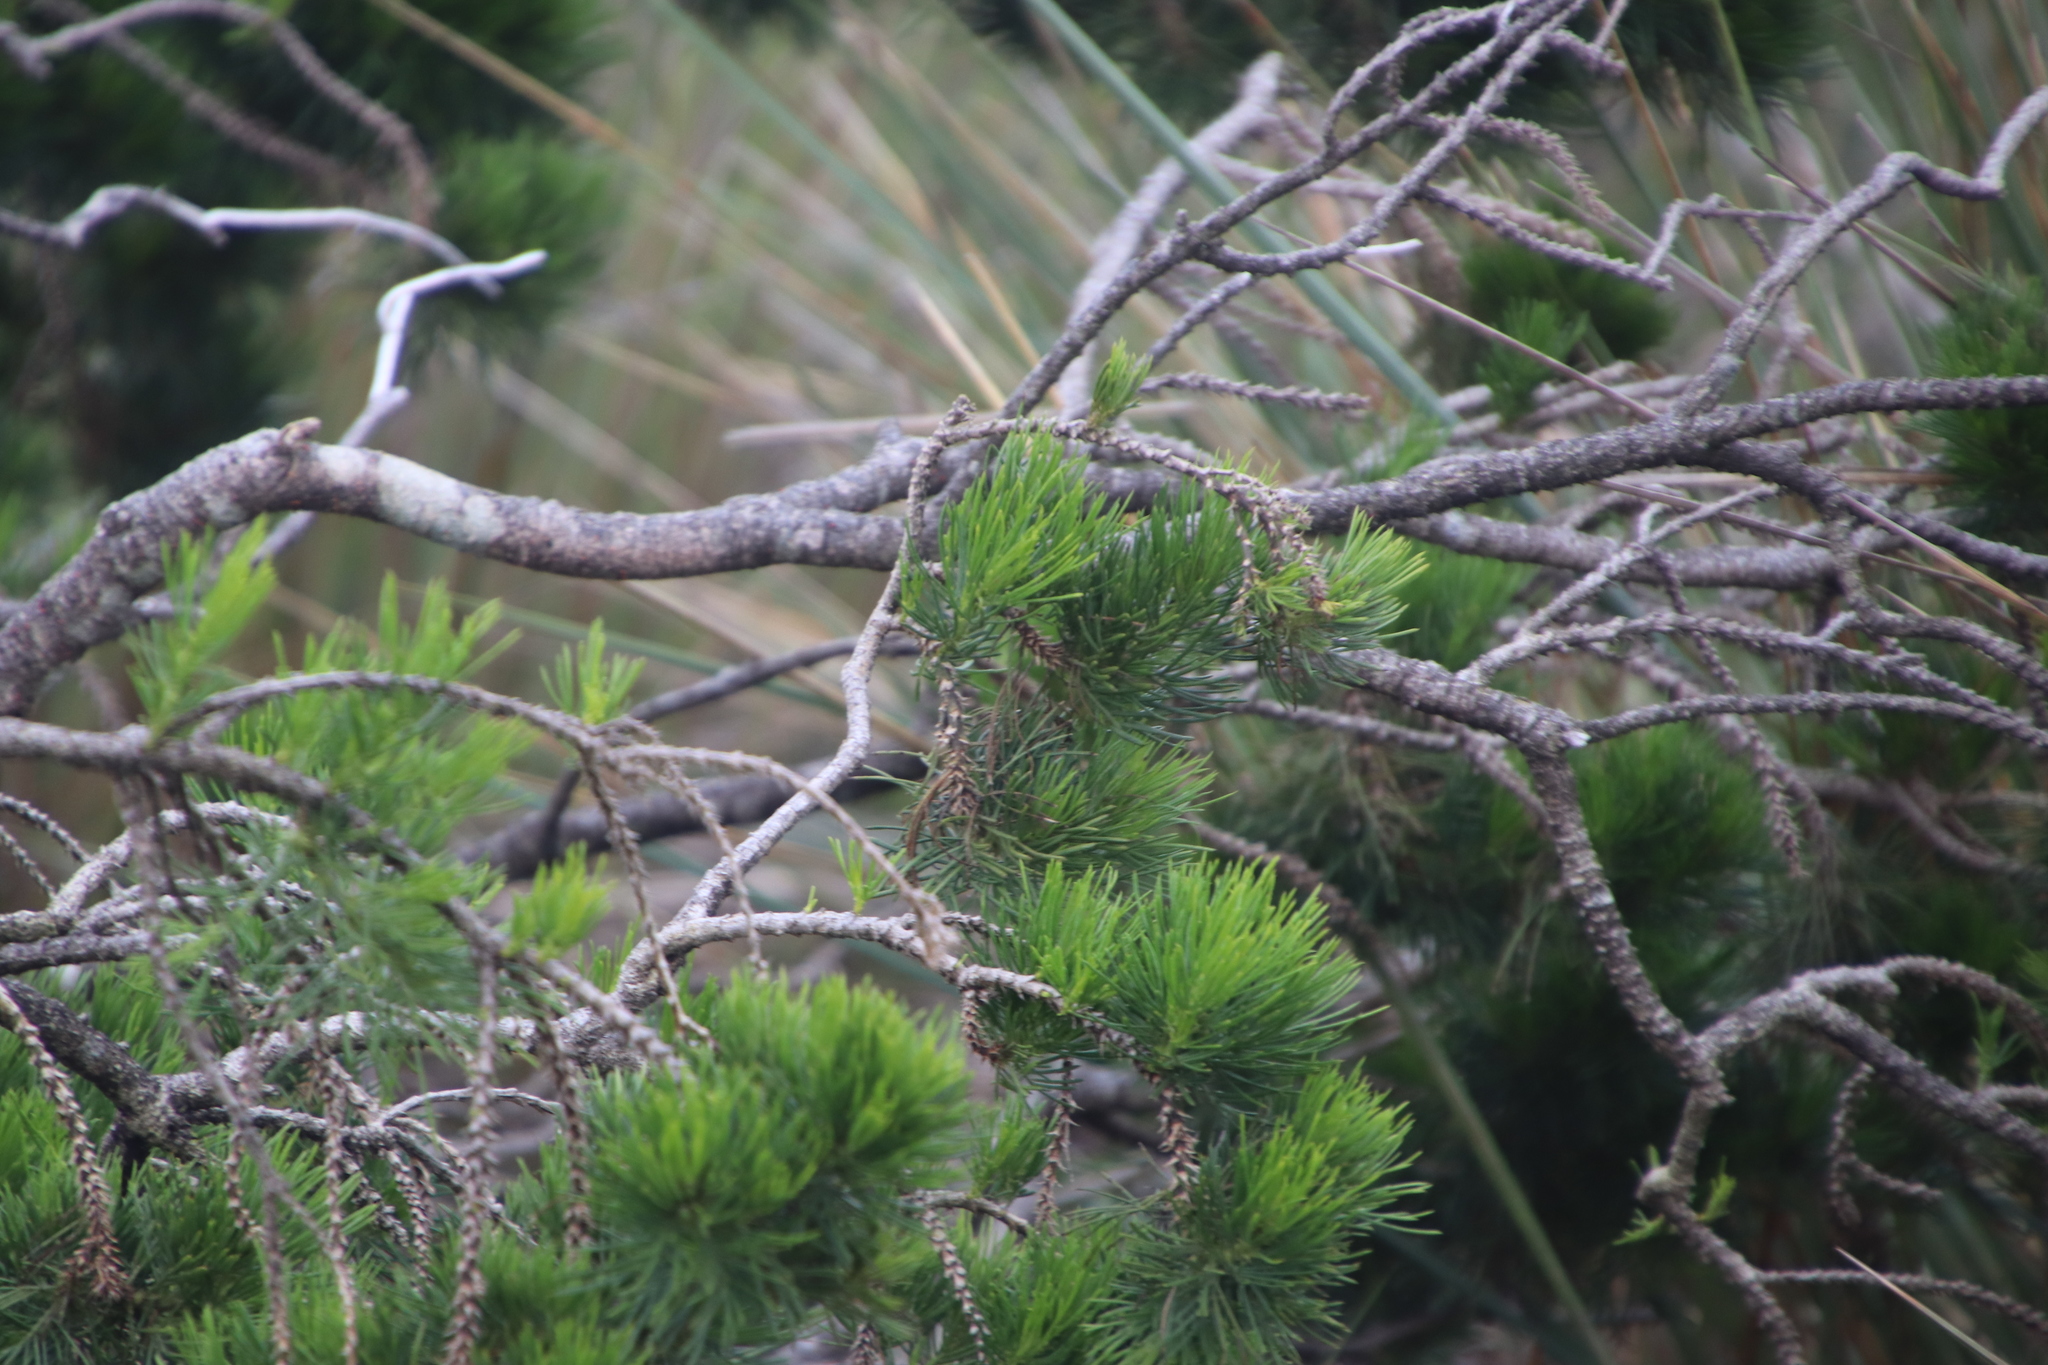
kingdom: Plantae
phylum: Tracheophyta
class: Magnoliopsida
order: Fabales
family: Fabaceae
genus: Psoralea
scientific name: Psoralea pinnata
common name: African scurfpea
